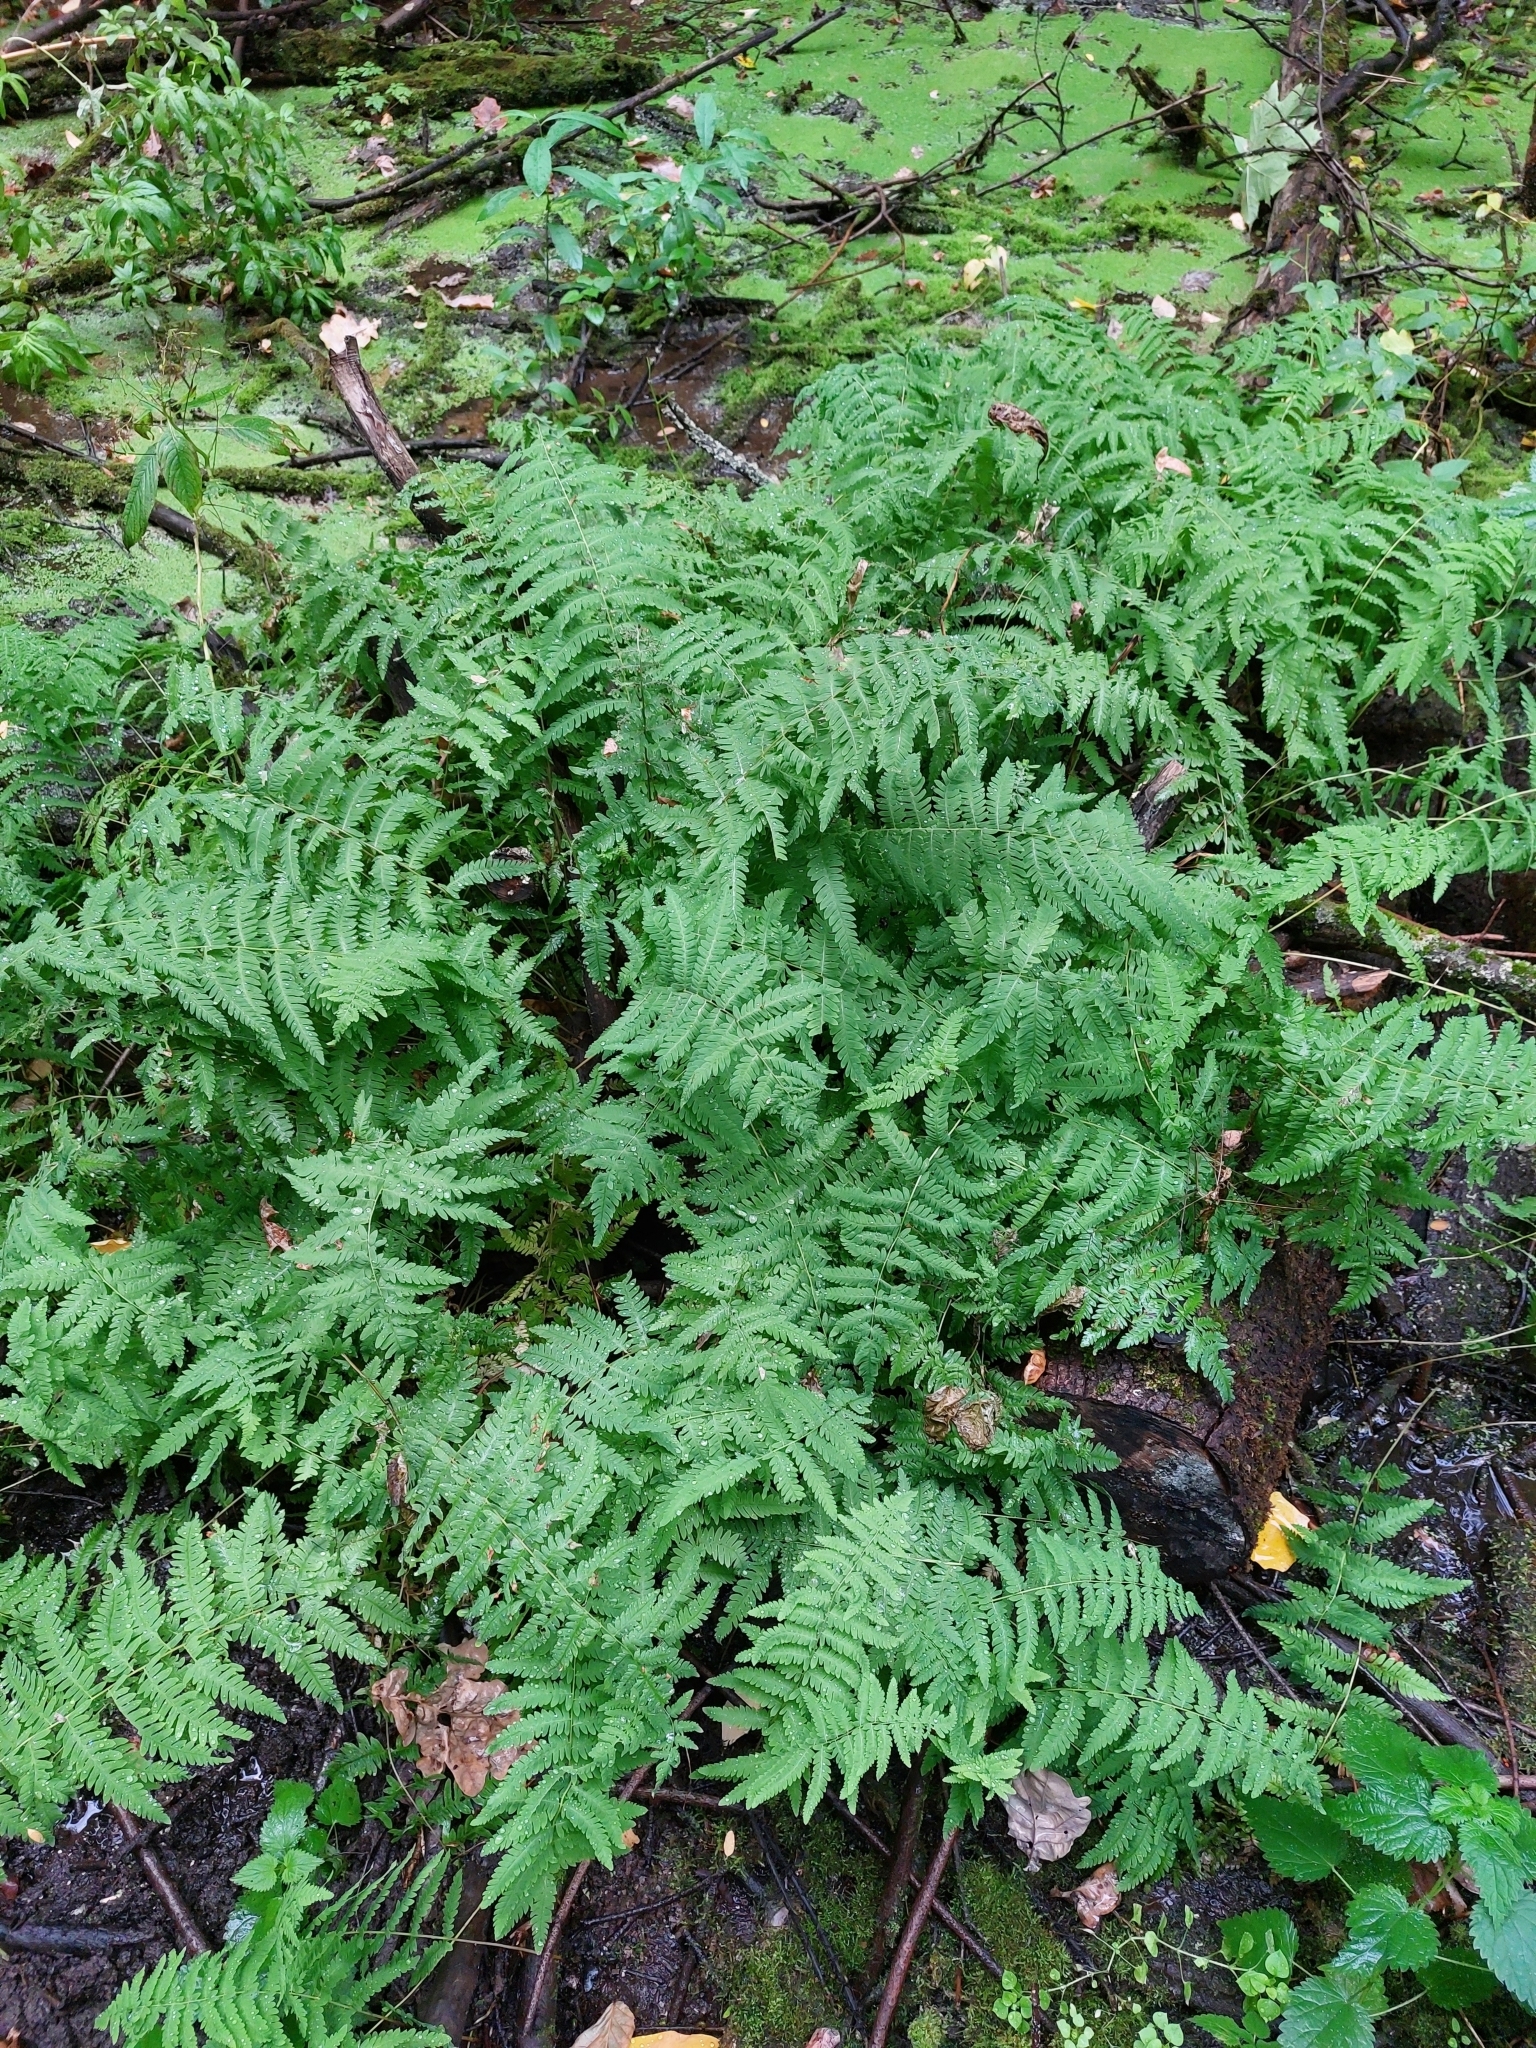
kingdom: Plantae
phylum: Tracheophyta
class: Polypodiopsida
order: Polypodiales
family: Thelypteridaceae
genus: Thelypteris
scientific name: Thelypteris palustris
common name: Marsh fern
